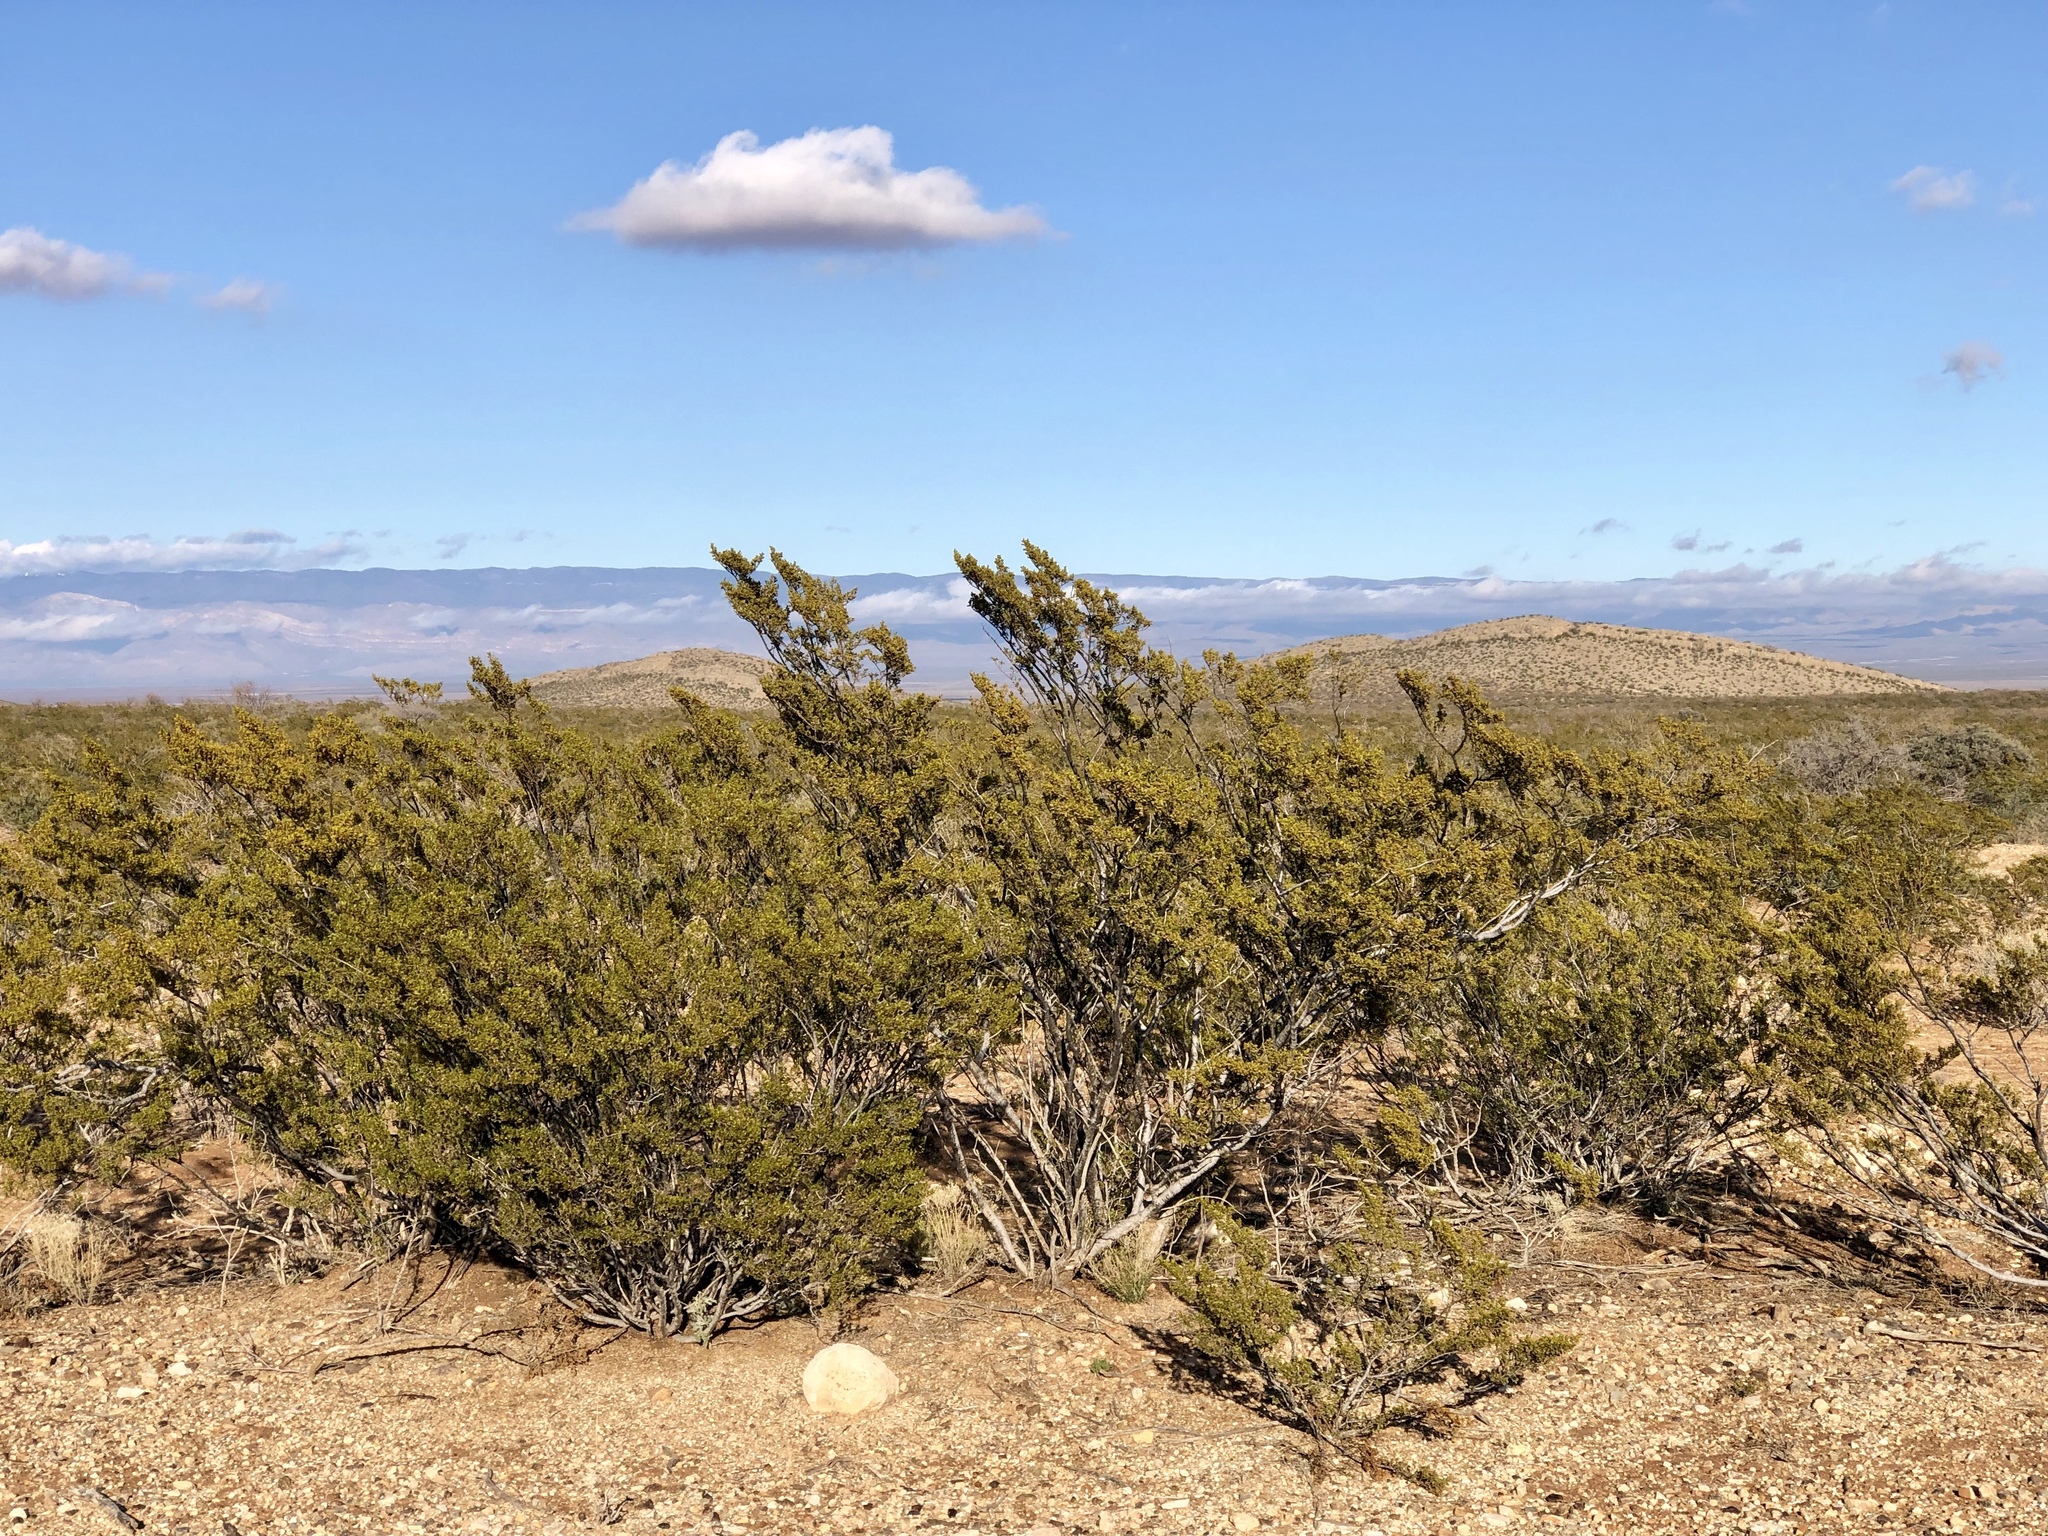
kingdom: Plantae
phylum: Tracheophyta
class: Magnoliopsida
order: Zygophyllales
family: Zygophyllaceae
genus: Larrea
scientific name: Larrea tridentata
